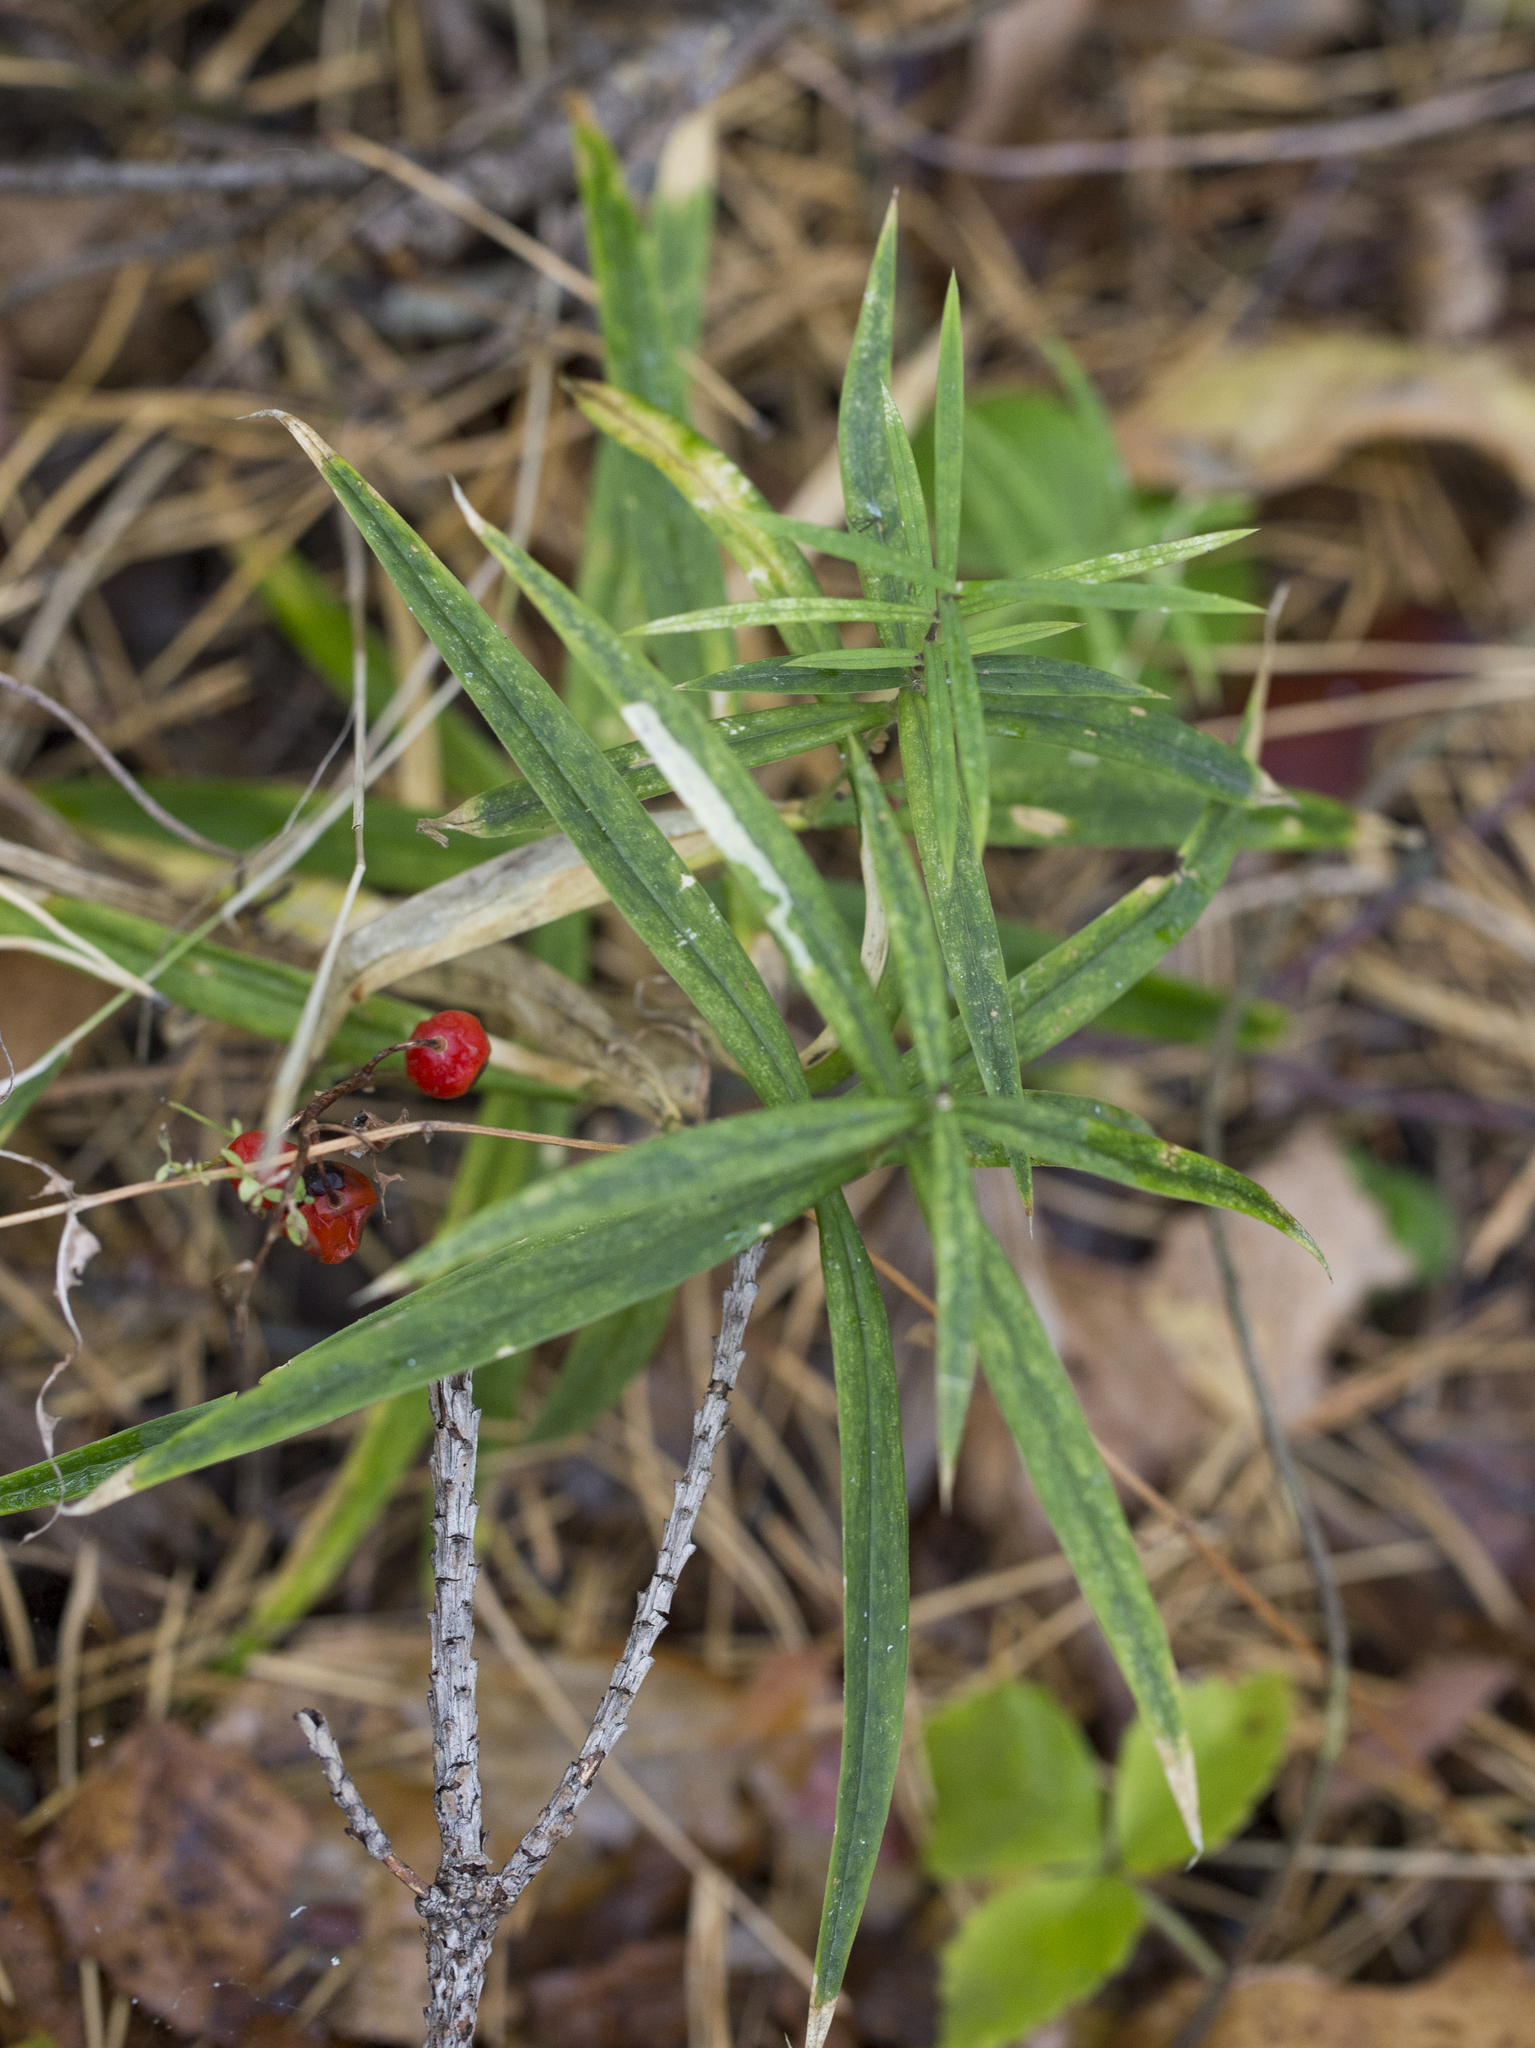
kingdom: Plantae
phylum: Tracheophyta
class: Magnoliopsida
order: Caryophyllales
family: Caryophyllaceae
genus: Rabelera
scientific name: Rabelera holostea
